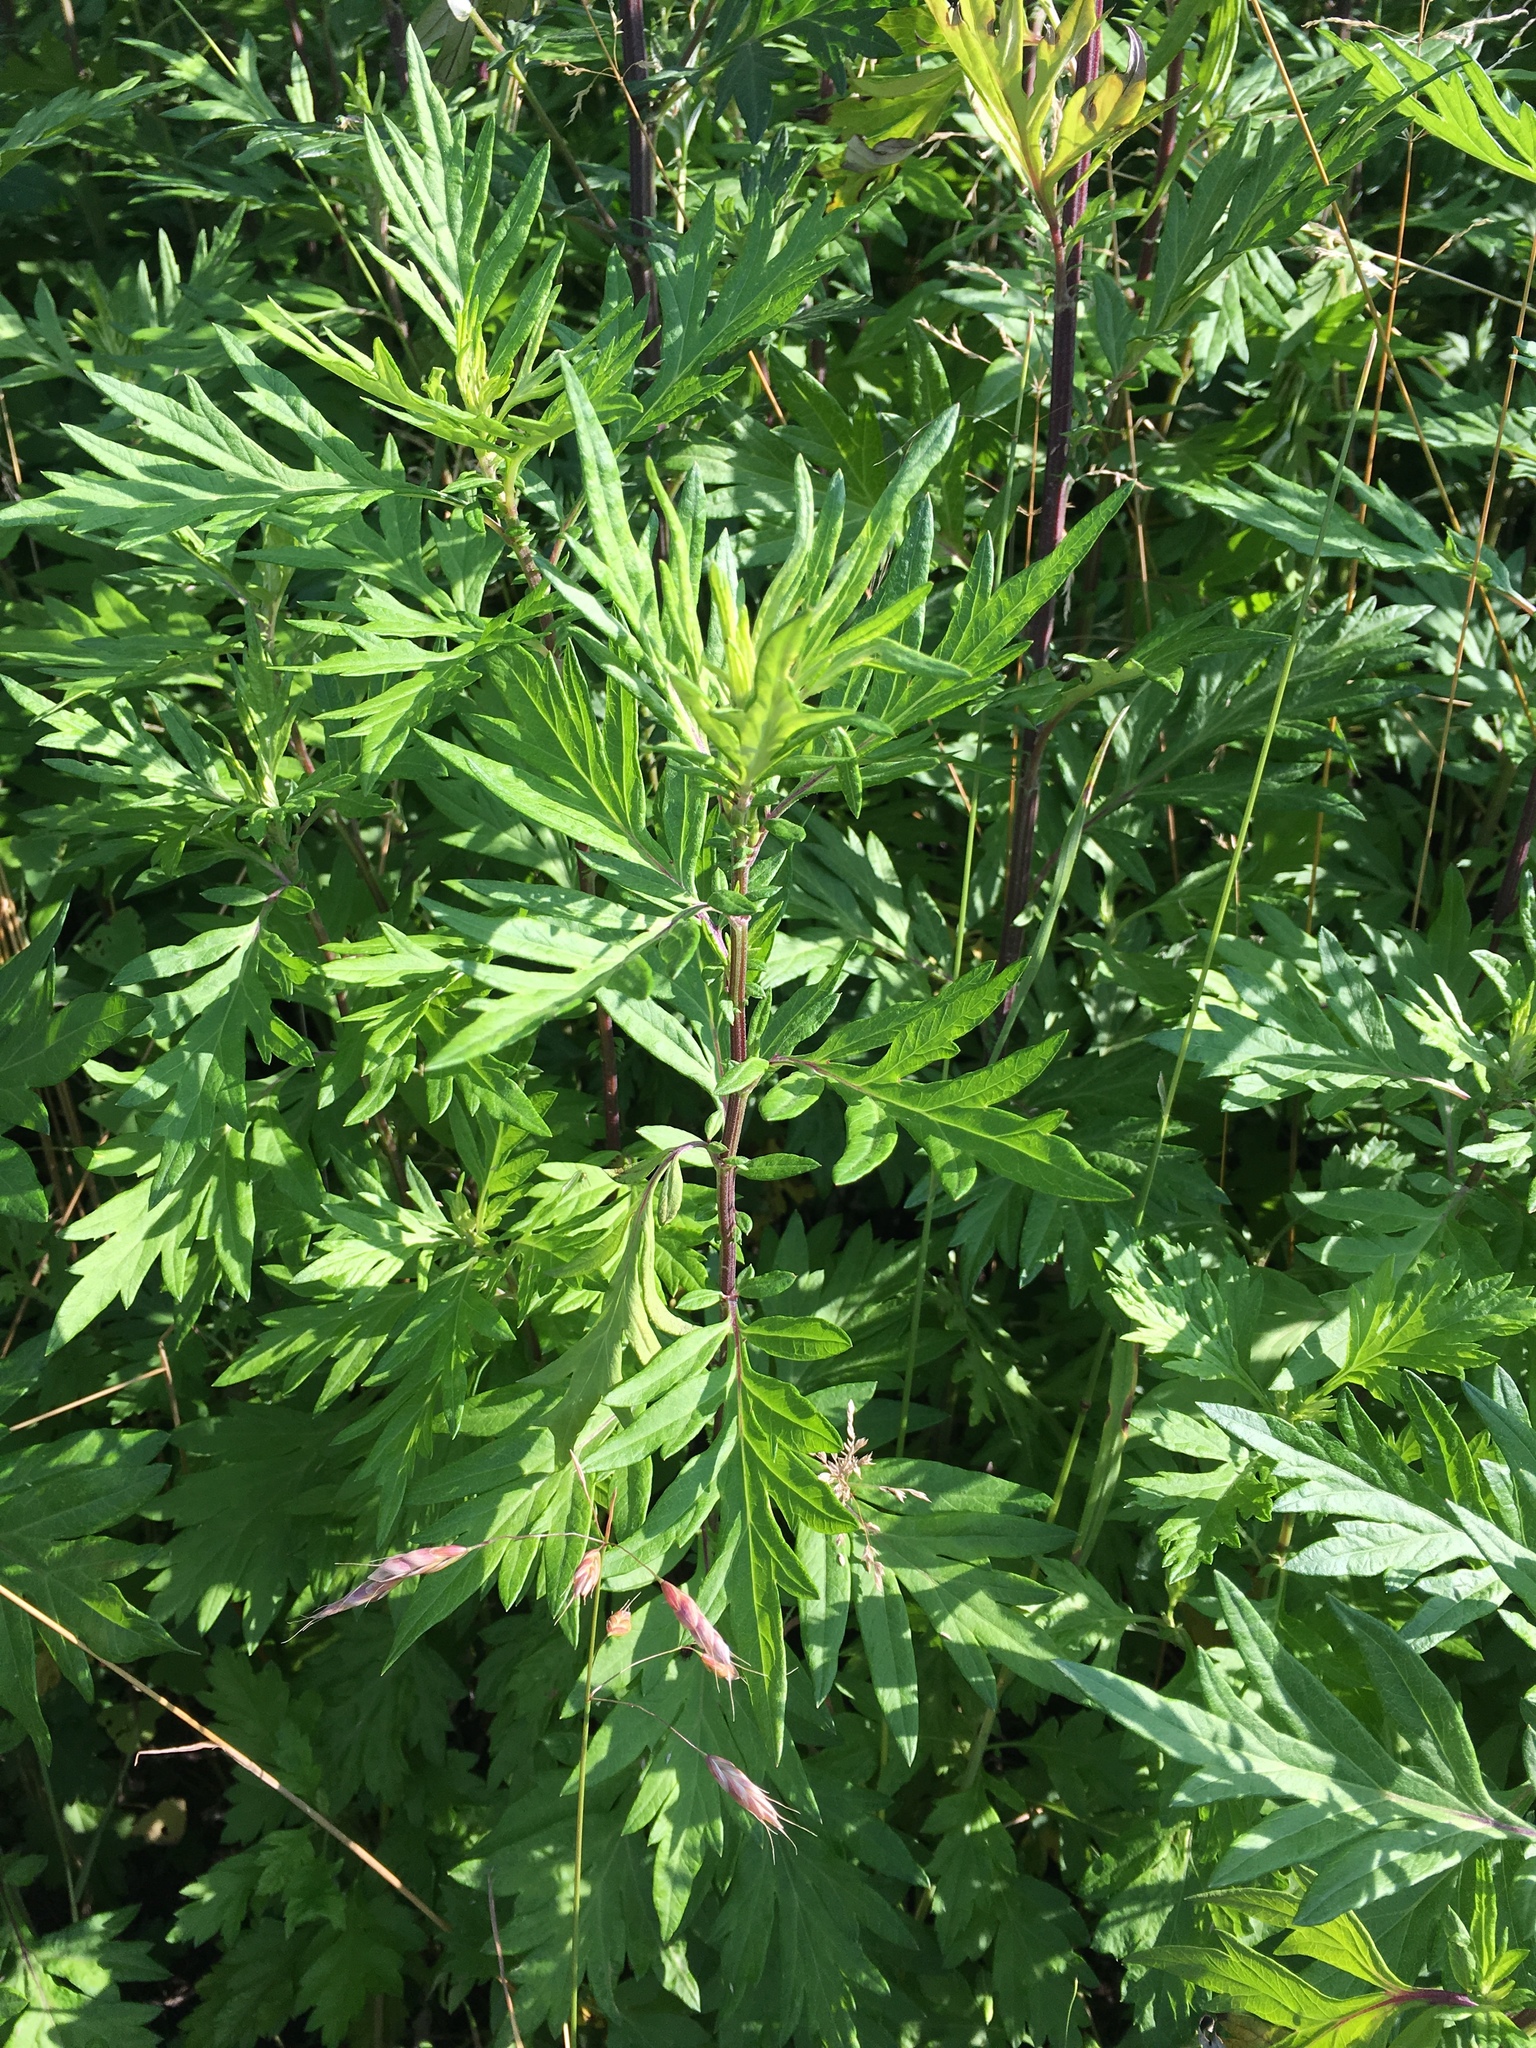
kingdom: Plantae
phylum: Tracheophyta
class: Magnoliopsida
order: Asterales
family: Asteraceae
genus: Artemisia
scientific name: Artemisia vulgaris
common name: Mugwort
